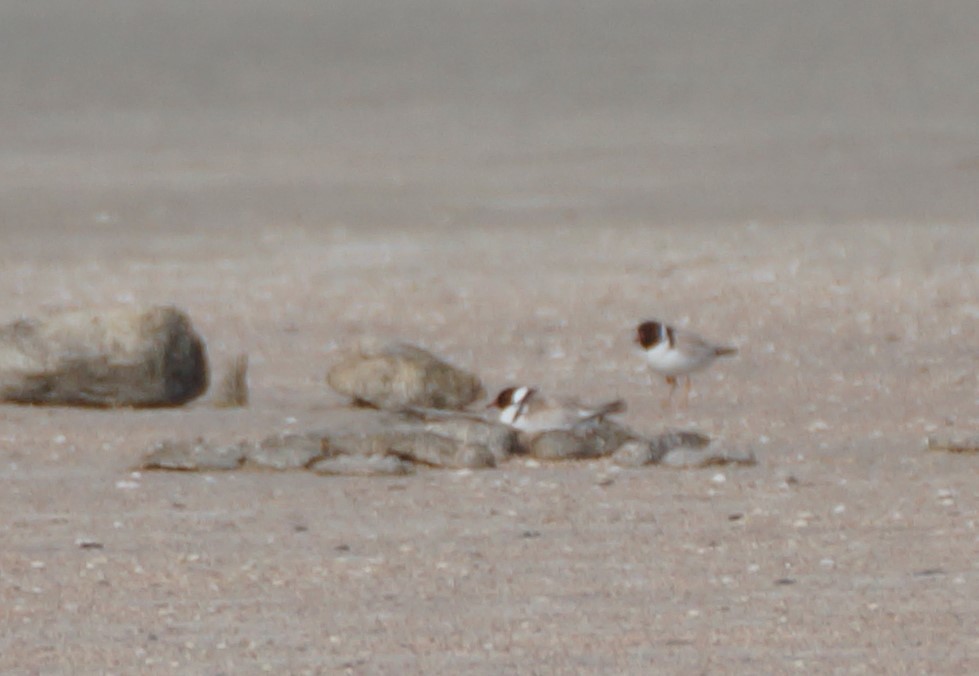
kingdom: Animalia
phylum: Chordata
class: Aves
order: Charadriiformes
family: Charadriidae
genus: Thinornis
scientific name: Thinornis cucullatus
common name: Hooded dotterel
